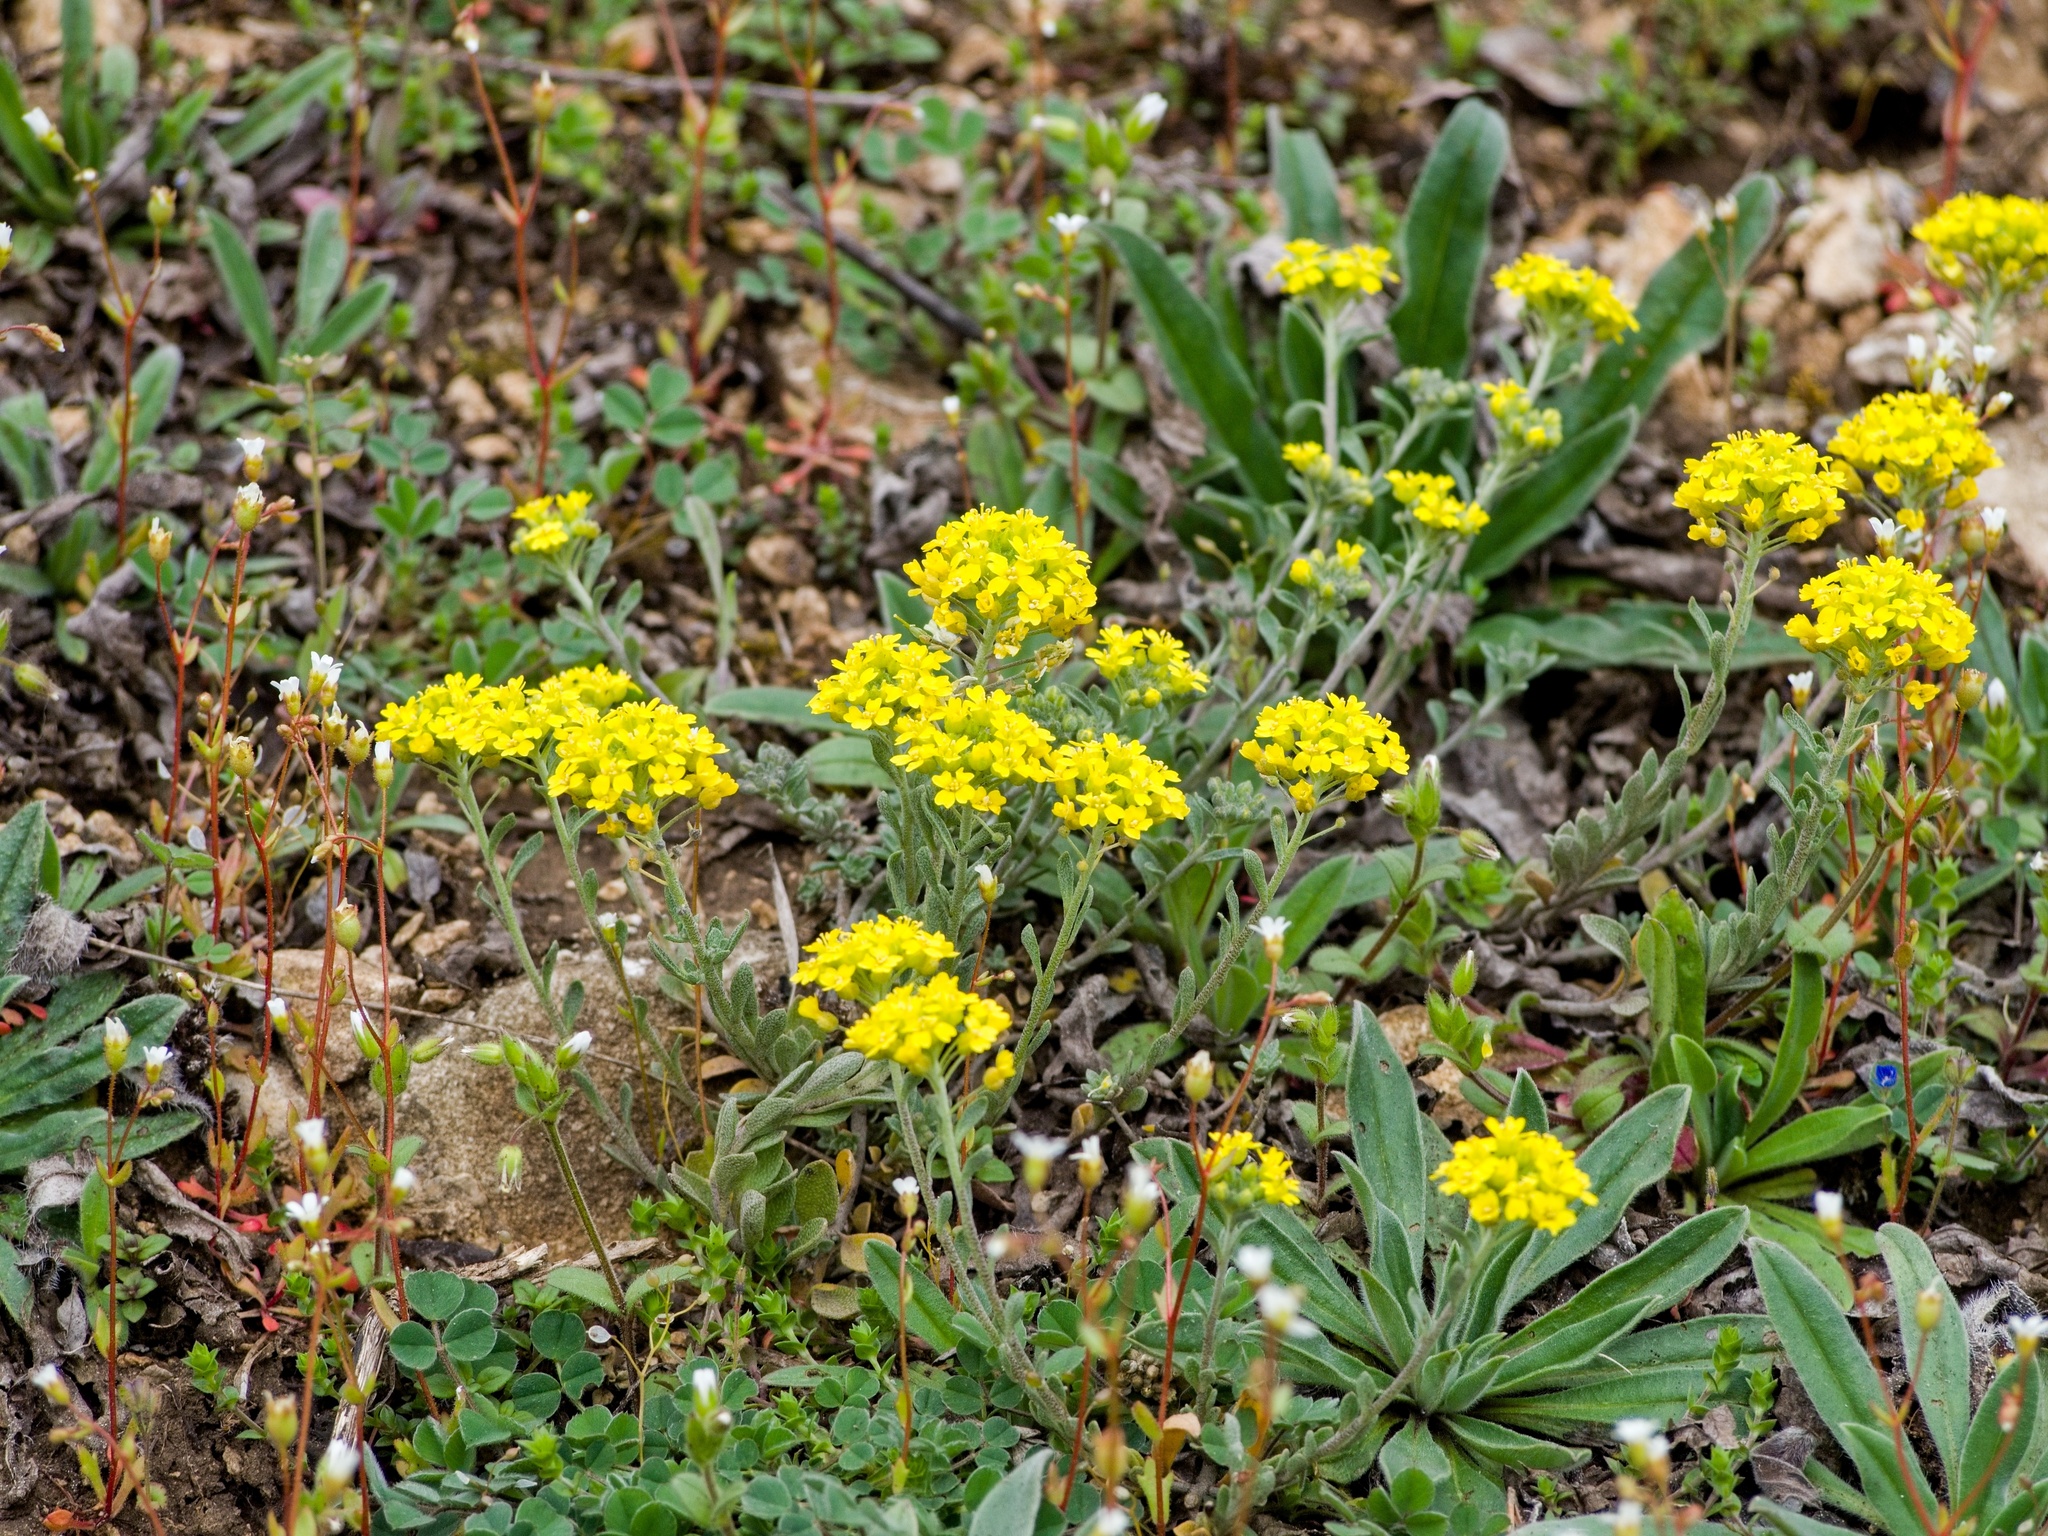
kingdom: Plantae
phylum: Tracheophyta
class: Magnoliopsida
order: Brassicales
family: Brassicaceae
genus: Alyssum
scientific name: Alyssum gmelinii
